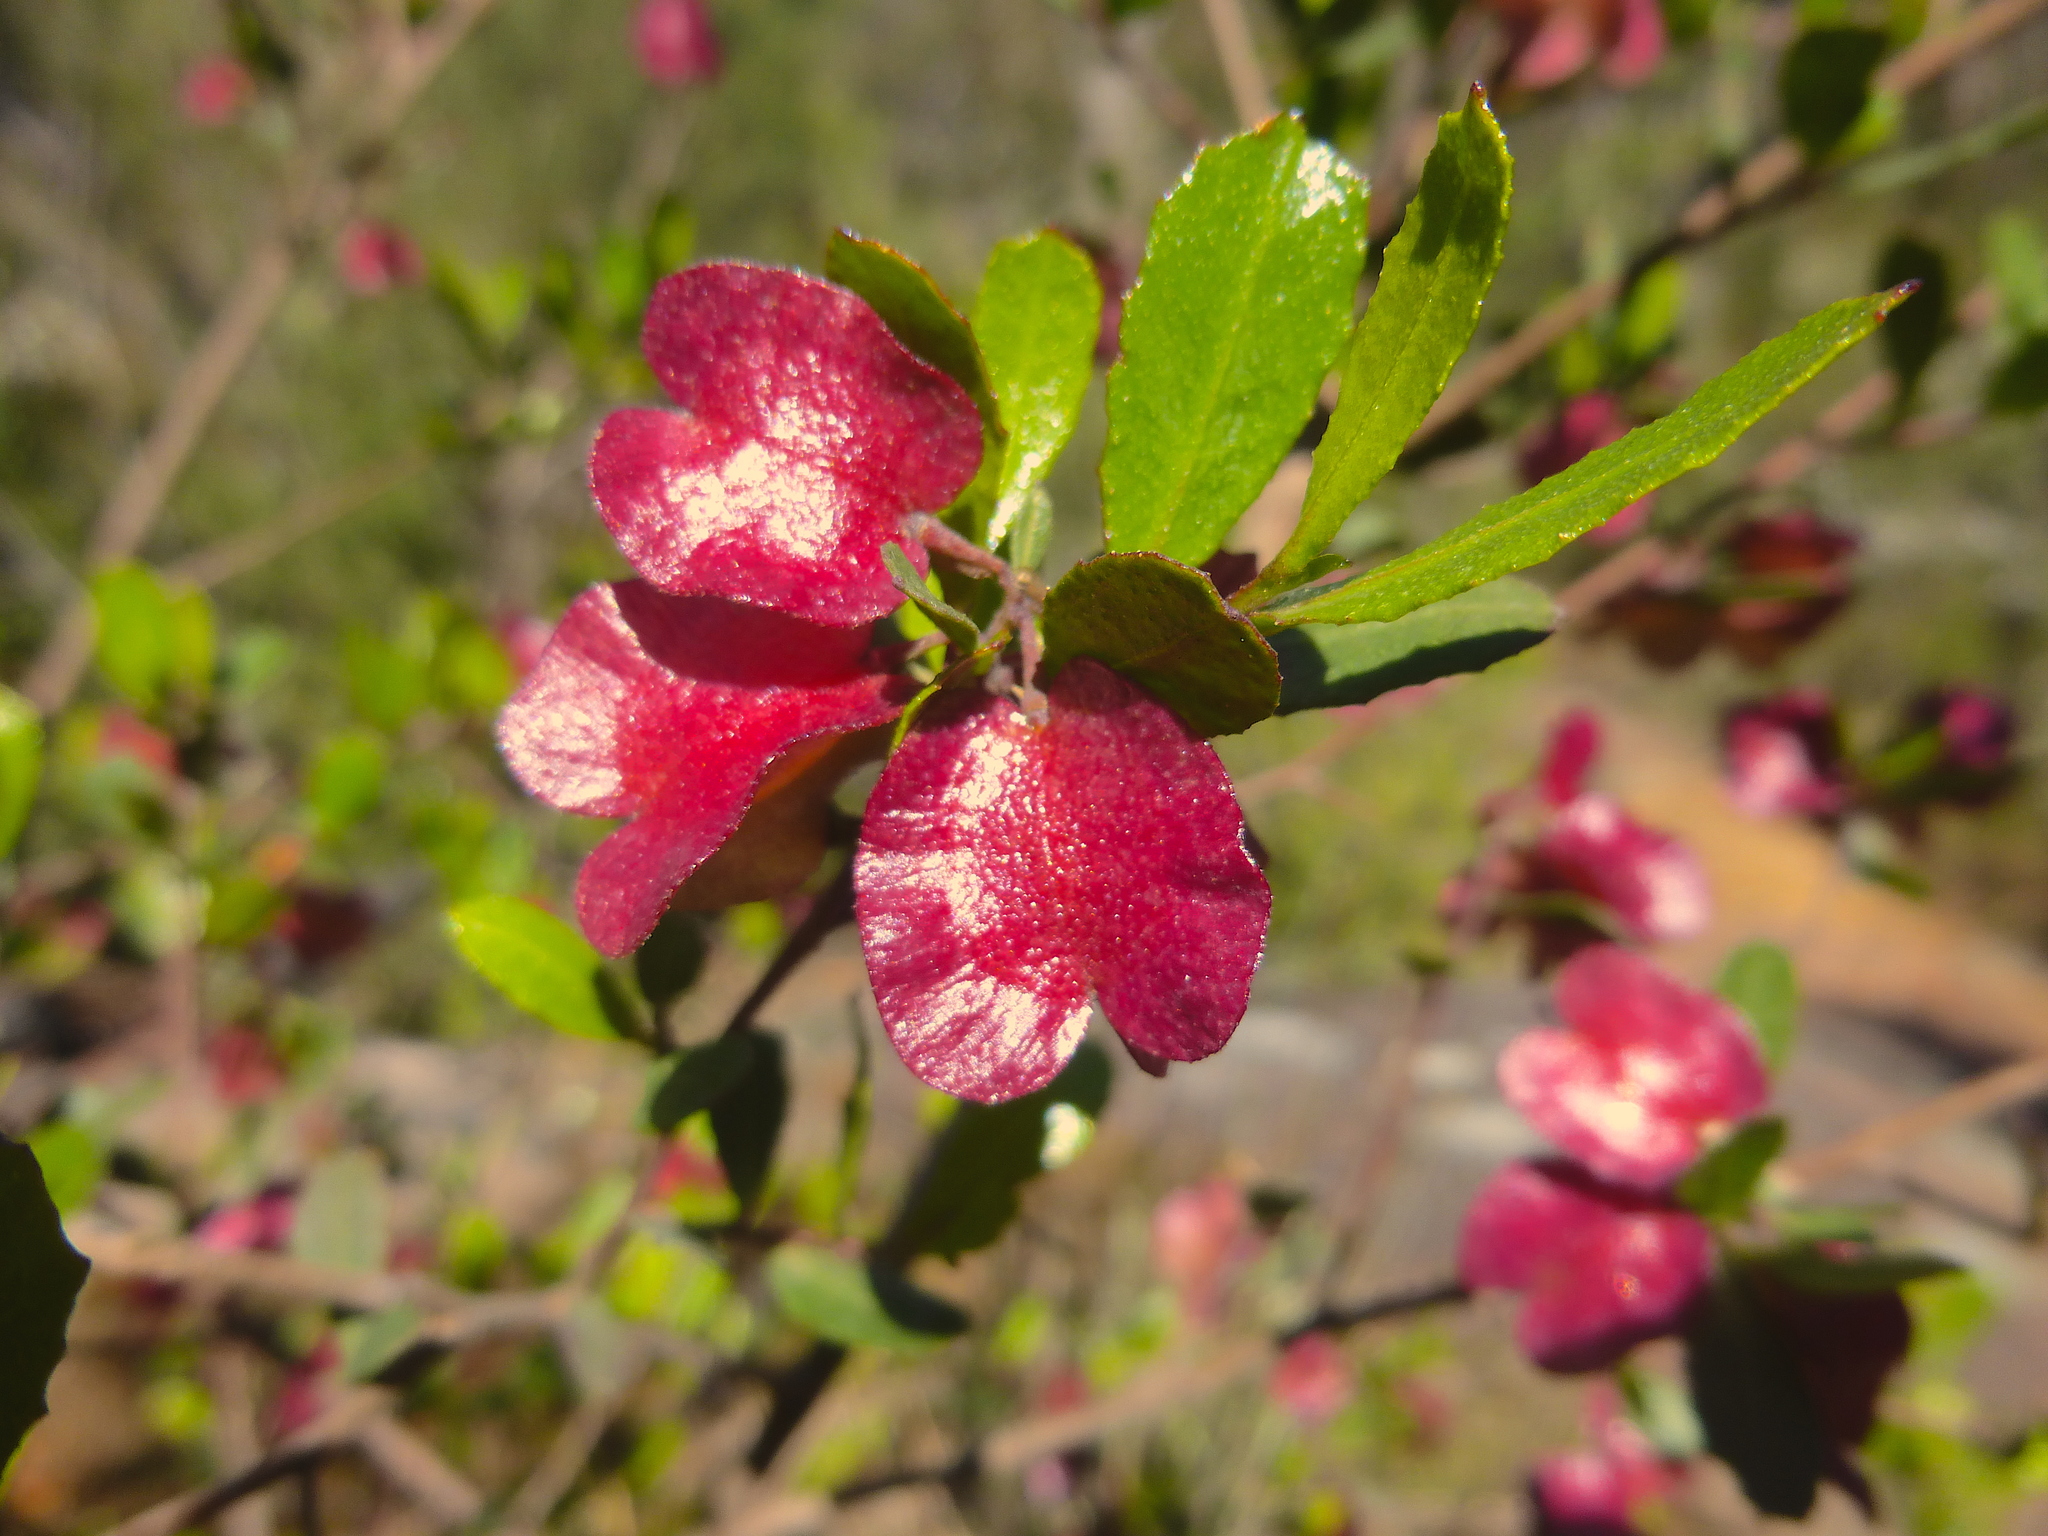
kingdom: Plantae
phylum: Tracheophyta
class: Magnoliopsida
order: Sapindales
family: Sapindaceae
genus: Dodonaea
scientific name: Dodonaea viscosa
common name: Hopbush
